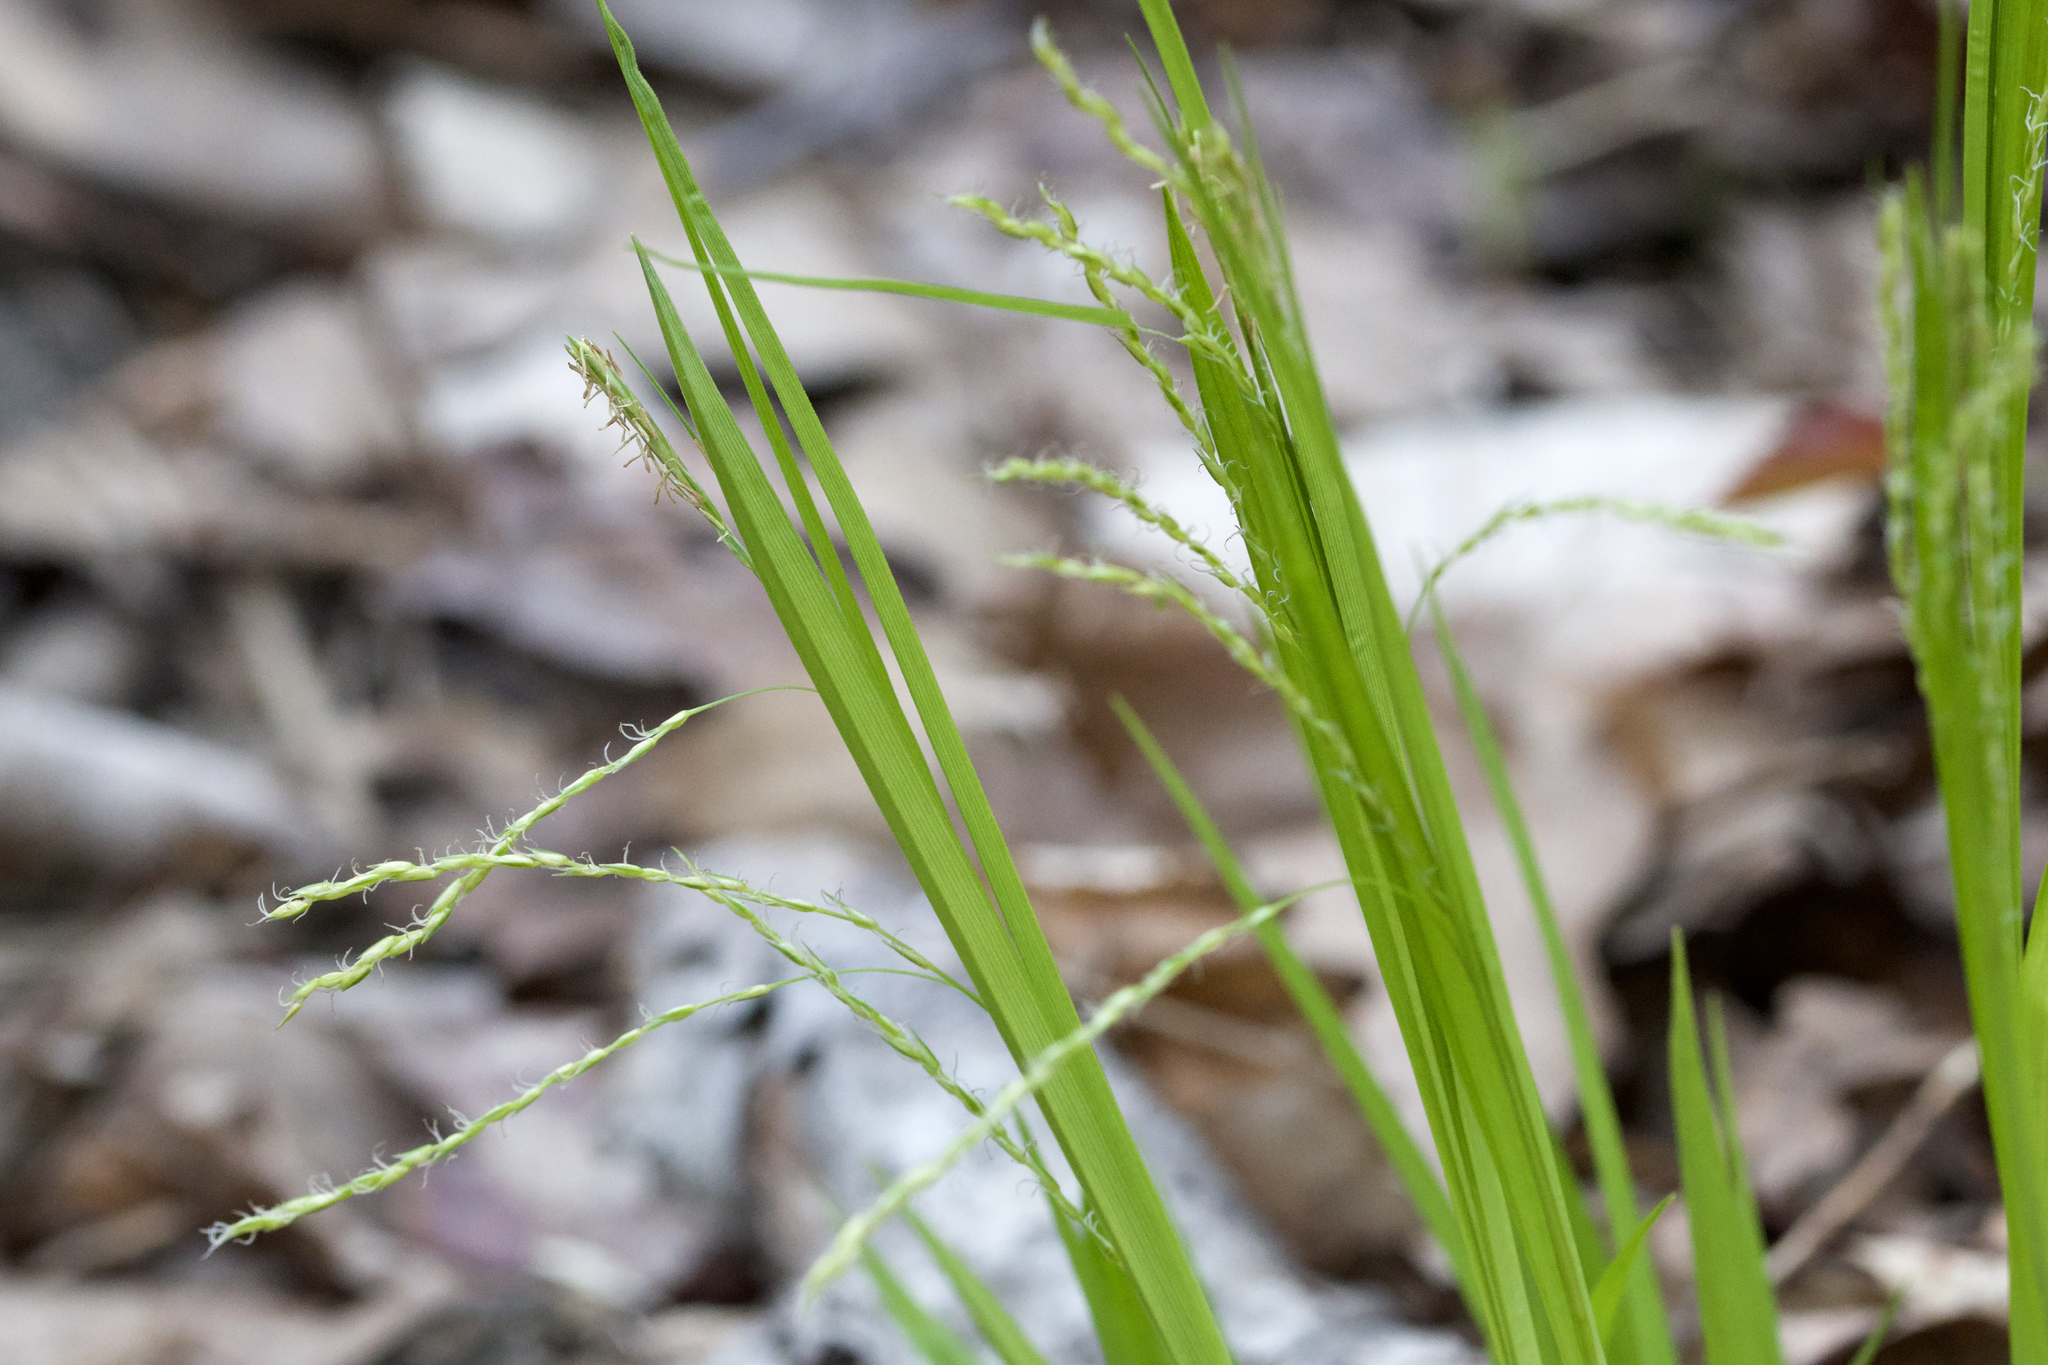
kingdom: Plantae
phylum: Tracheophyta
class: Liliopsida
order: Poales
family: Cyperaceae
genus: Carex
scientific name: Carex arctata
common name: Black sedge
